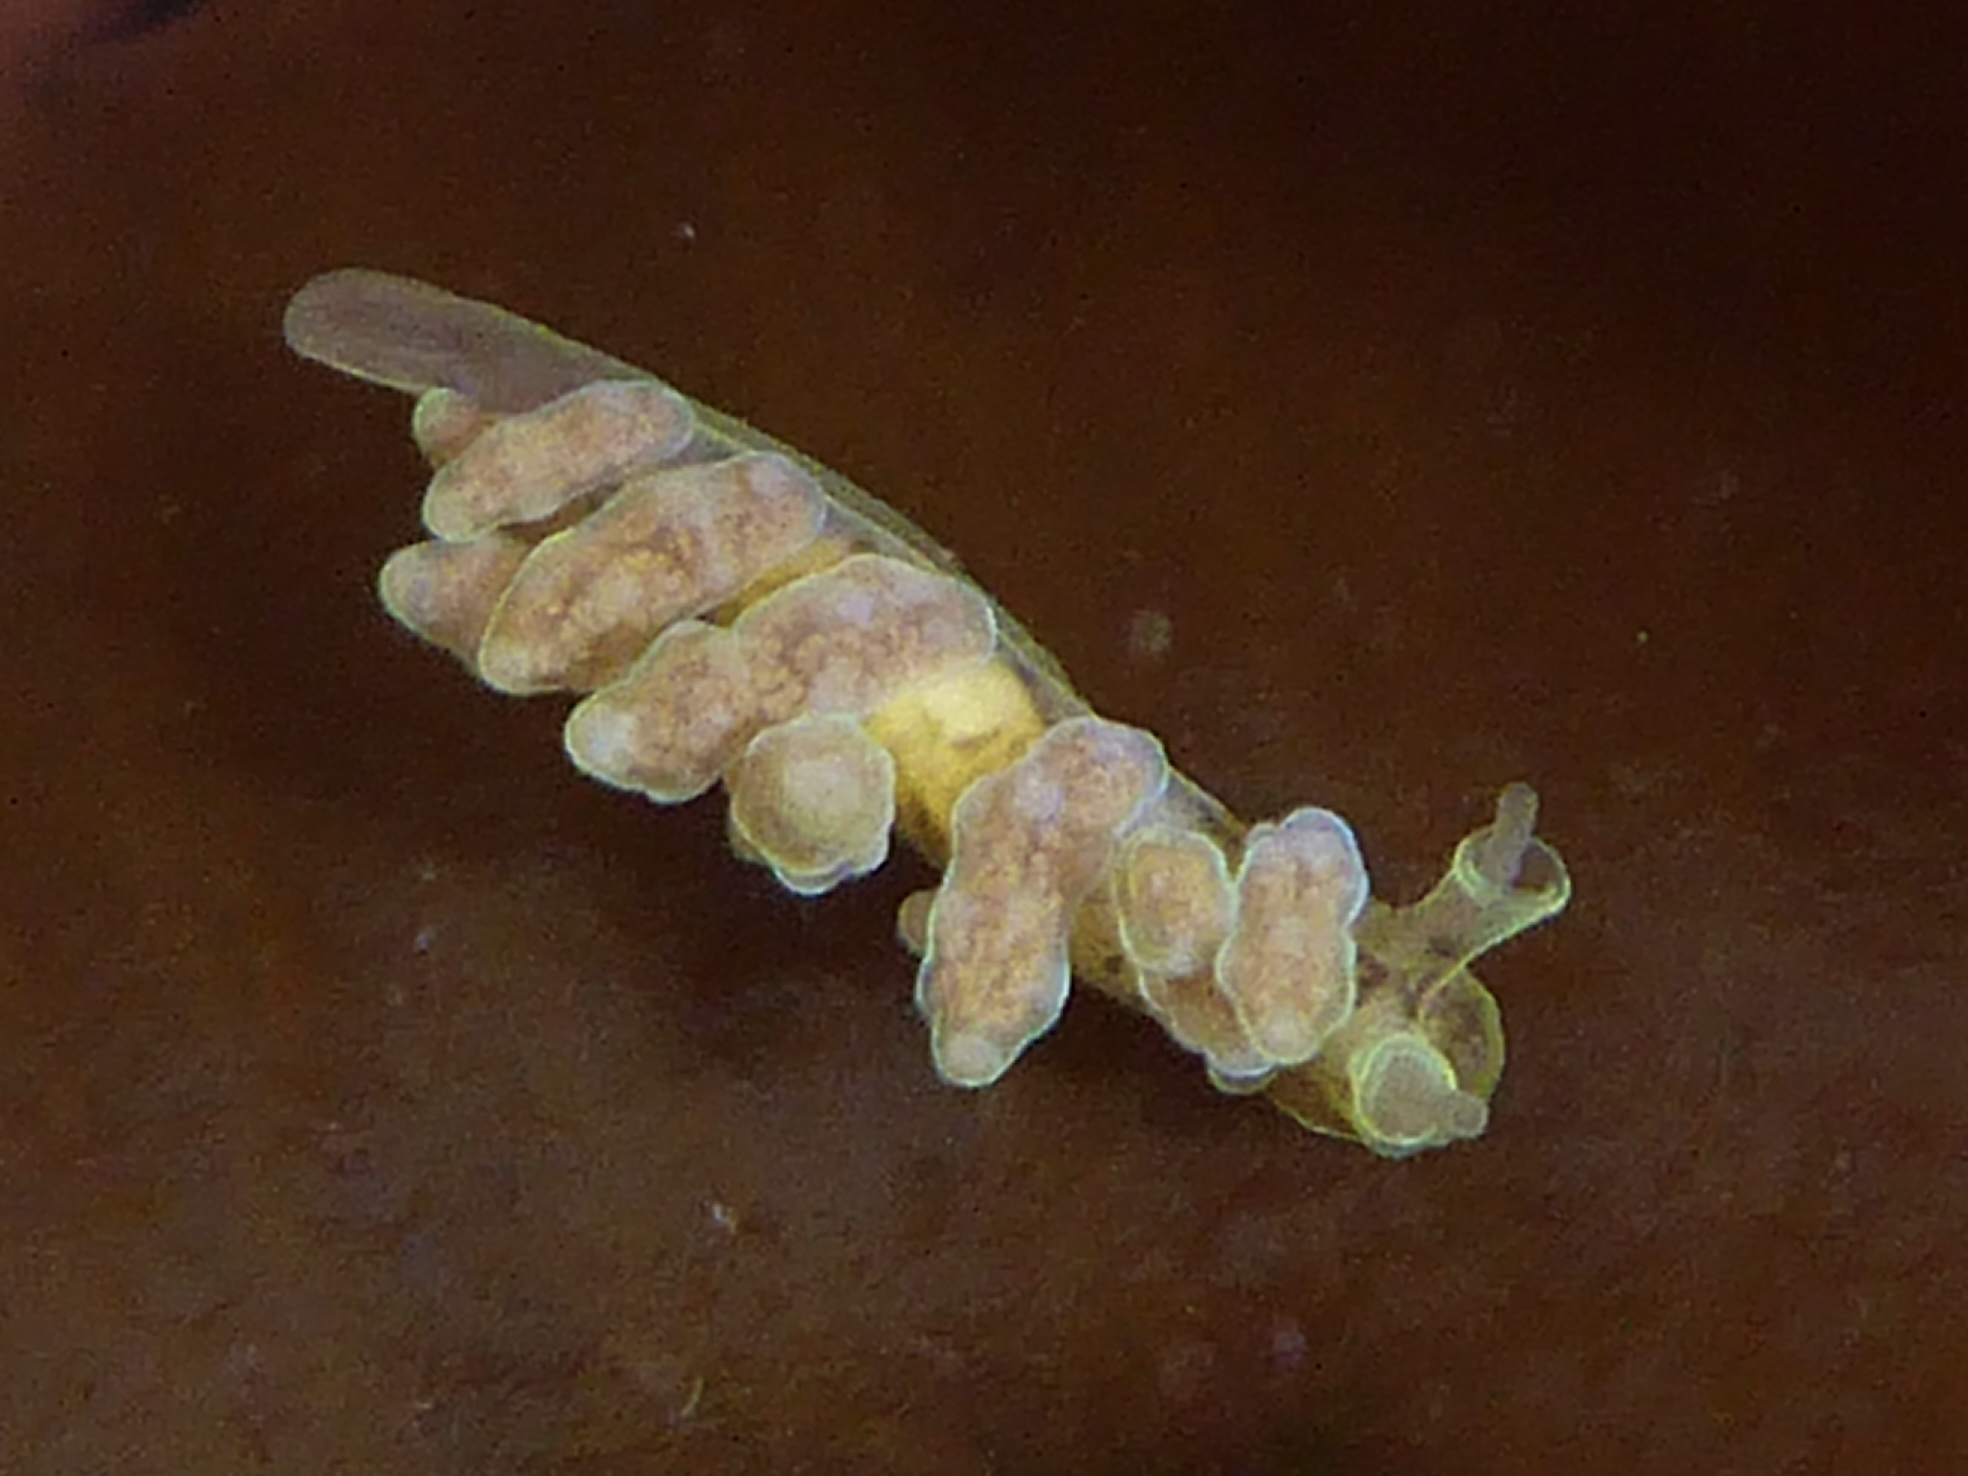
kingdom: Animalia
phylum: Mollusca
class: Gastropoda
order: Nudibranchia
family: Dotidae
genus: Doto
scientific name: Doto columbiana
